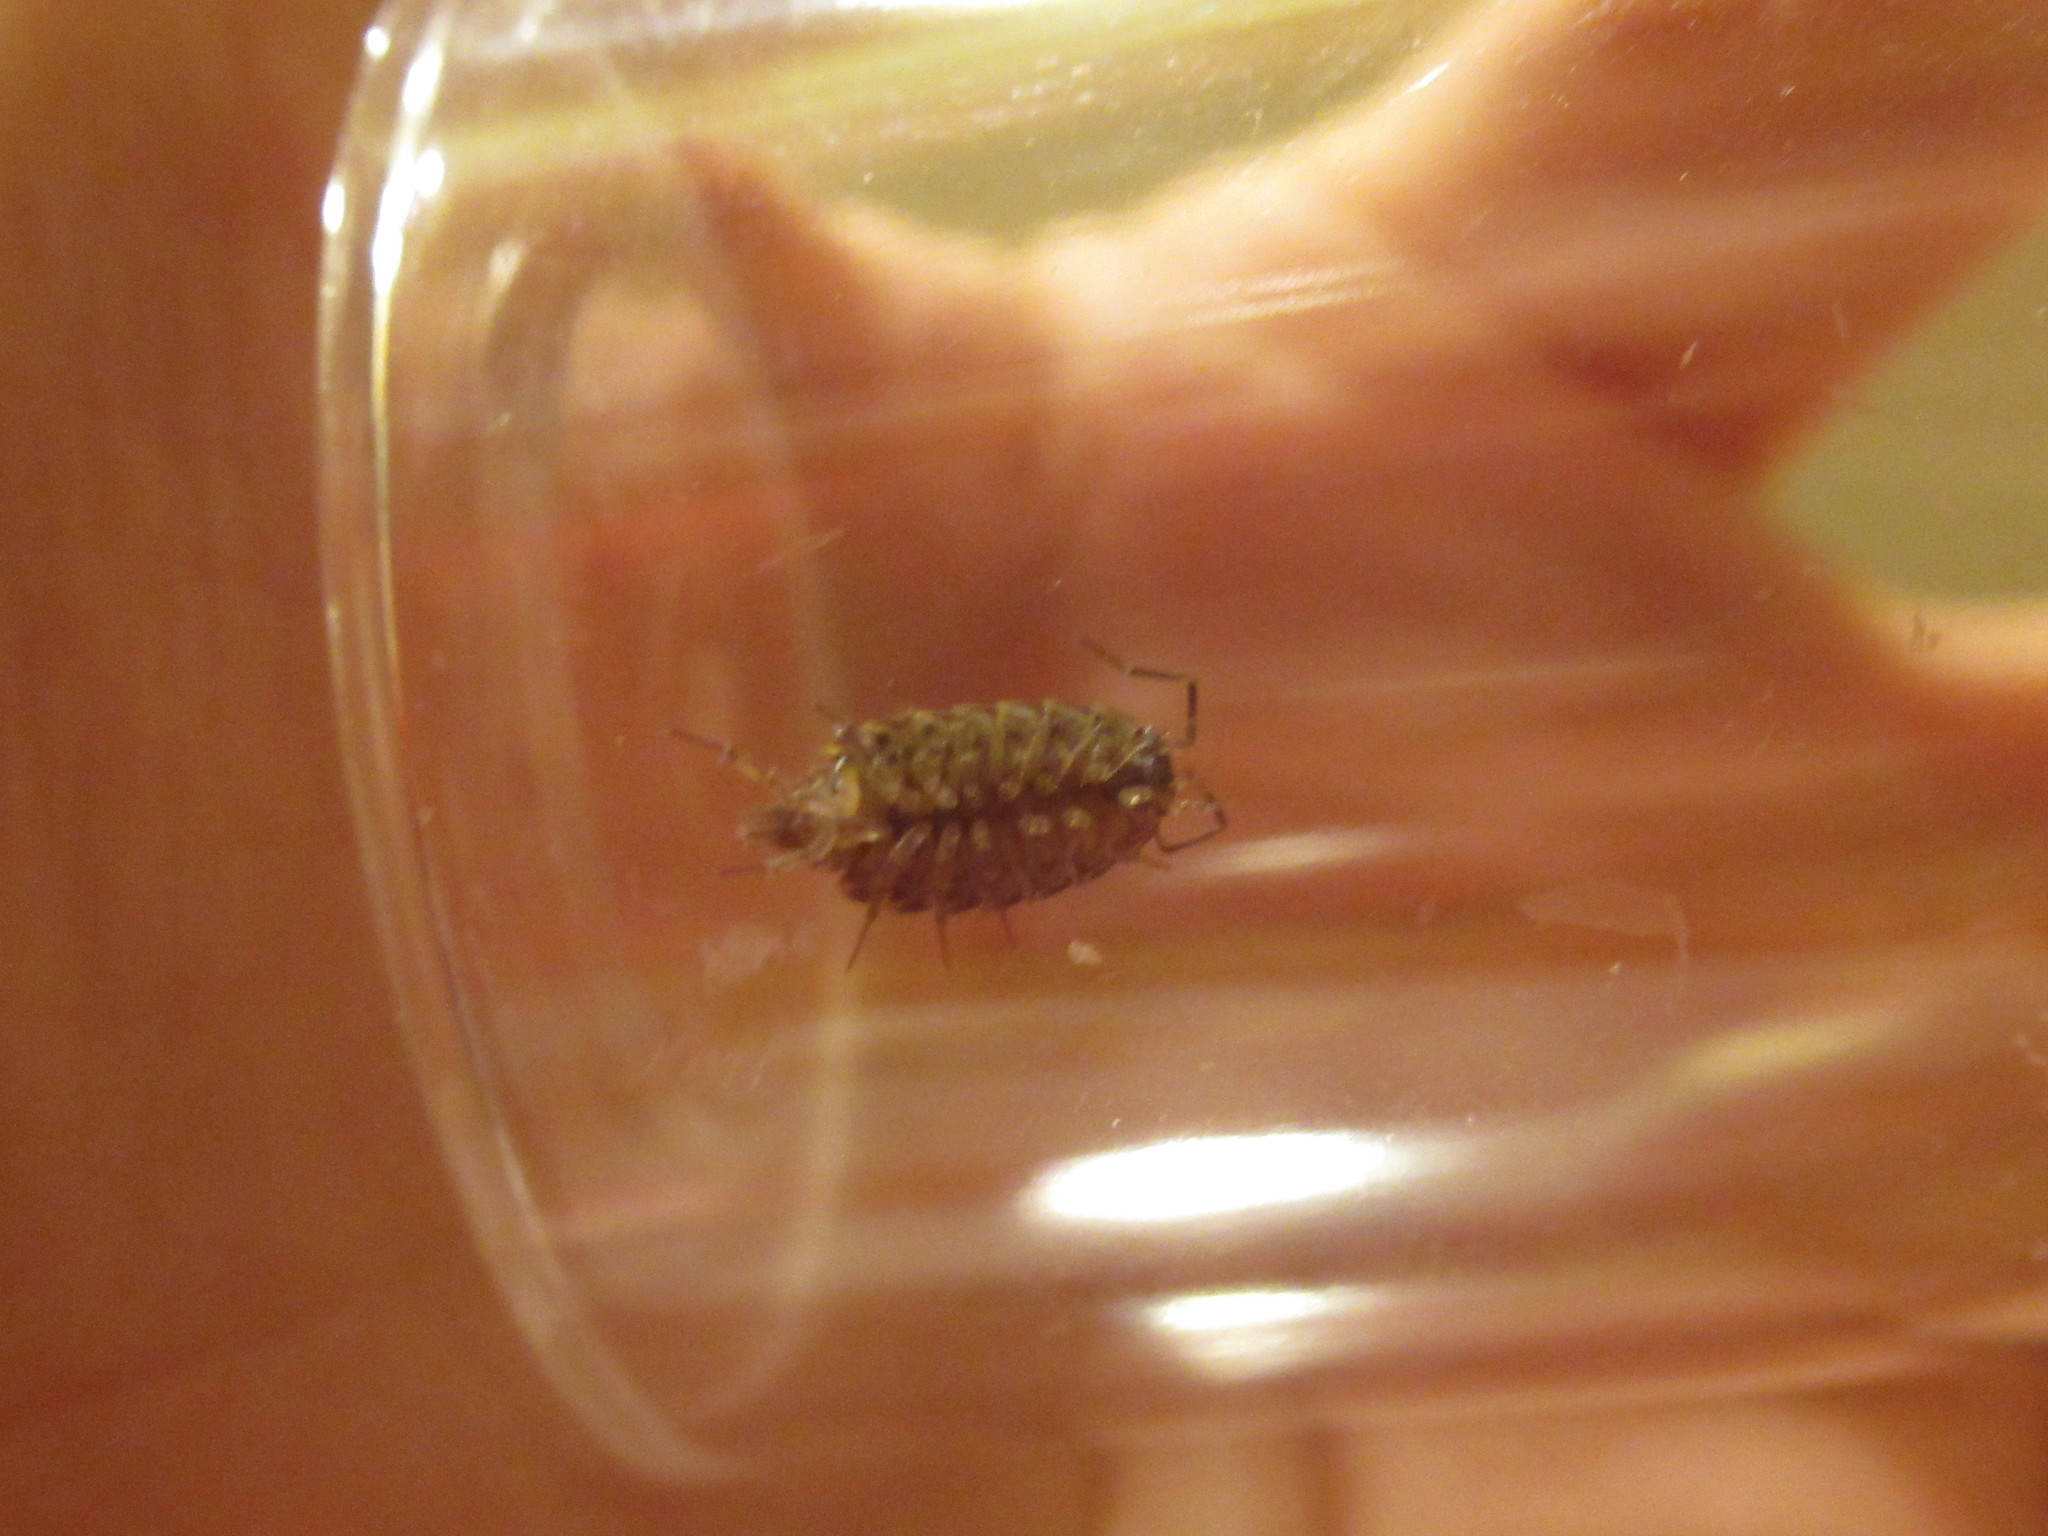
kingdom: Animalia
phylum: Arthropoda
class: Malacostraca
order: Isopoda
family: Philosciidae
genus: Philoscia
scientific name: Philoscia muscorum
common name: Common striped woodlouse
